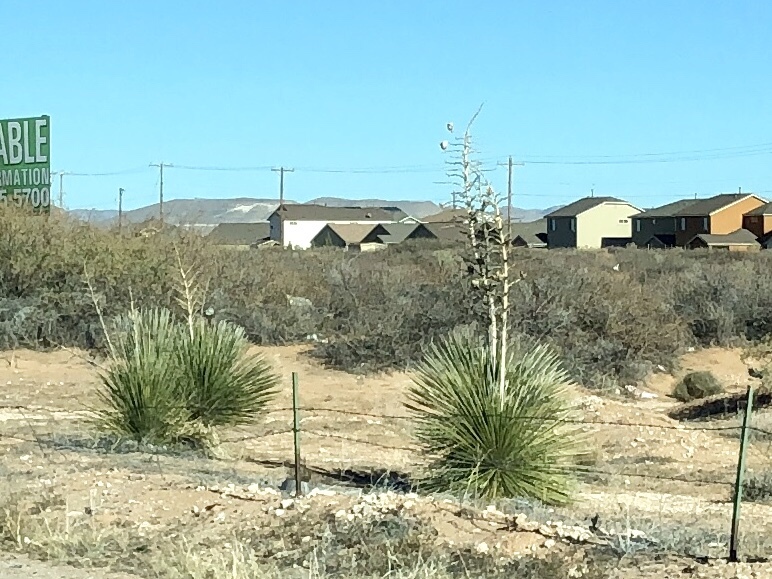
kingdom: Plantae
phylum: Tracheophyta
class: Liliopsida
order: Asparagales
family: Asparagaceae
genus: Yucca
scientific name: Yucca elata
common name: Palmella
